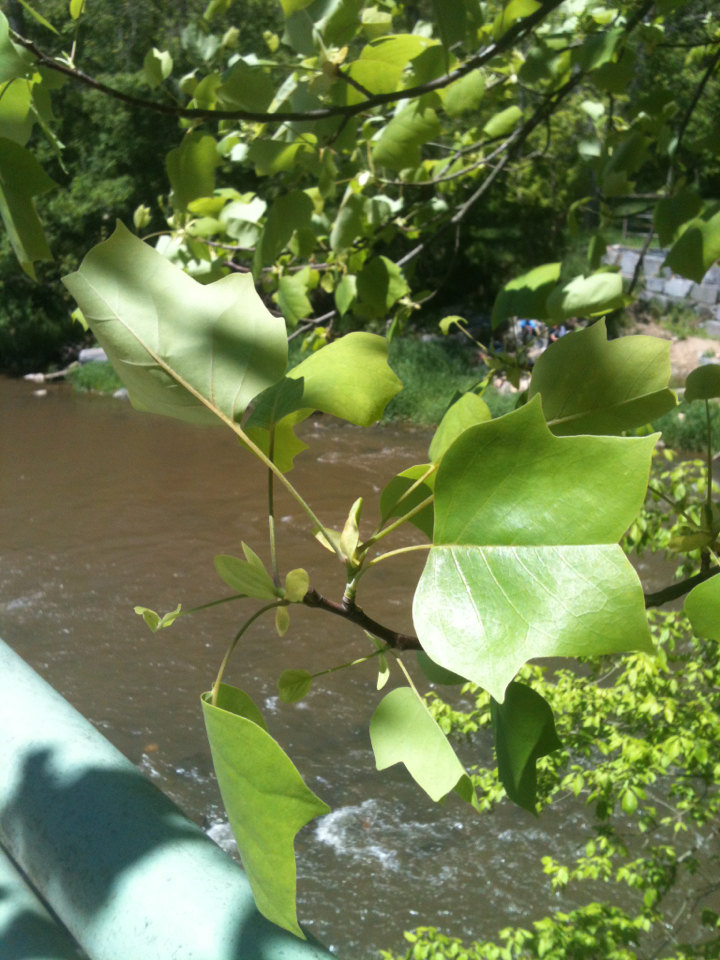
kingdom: Plantae
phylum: Tracheophyta
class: Magnoliopsida
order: Magnoliales
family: Magnoliaceae
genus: Liriodendron
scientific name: Liriodendron tulipifera
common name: Tulip tree
